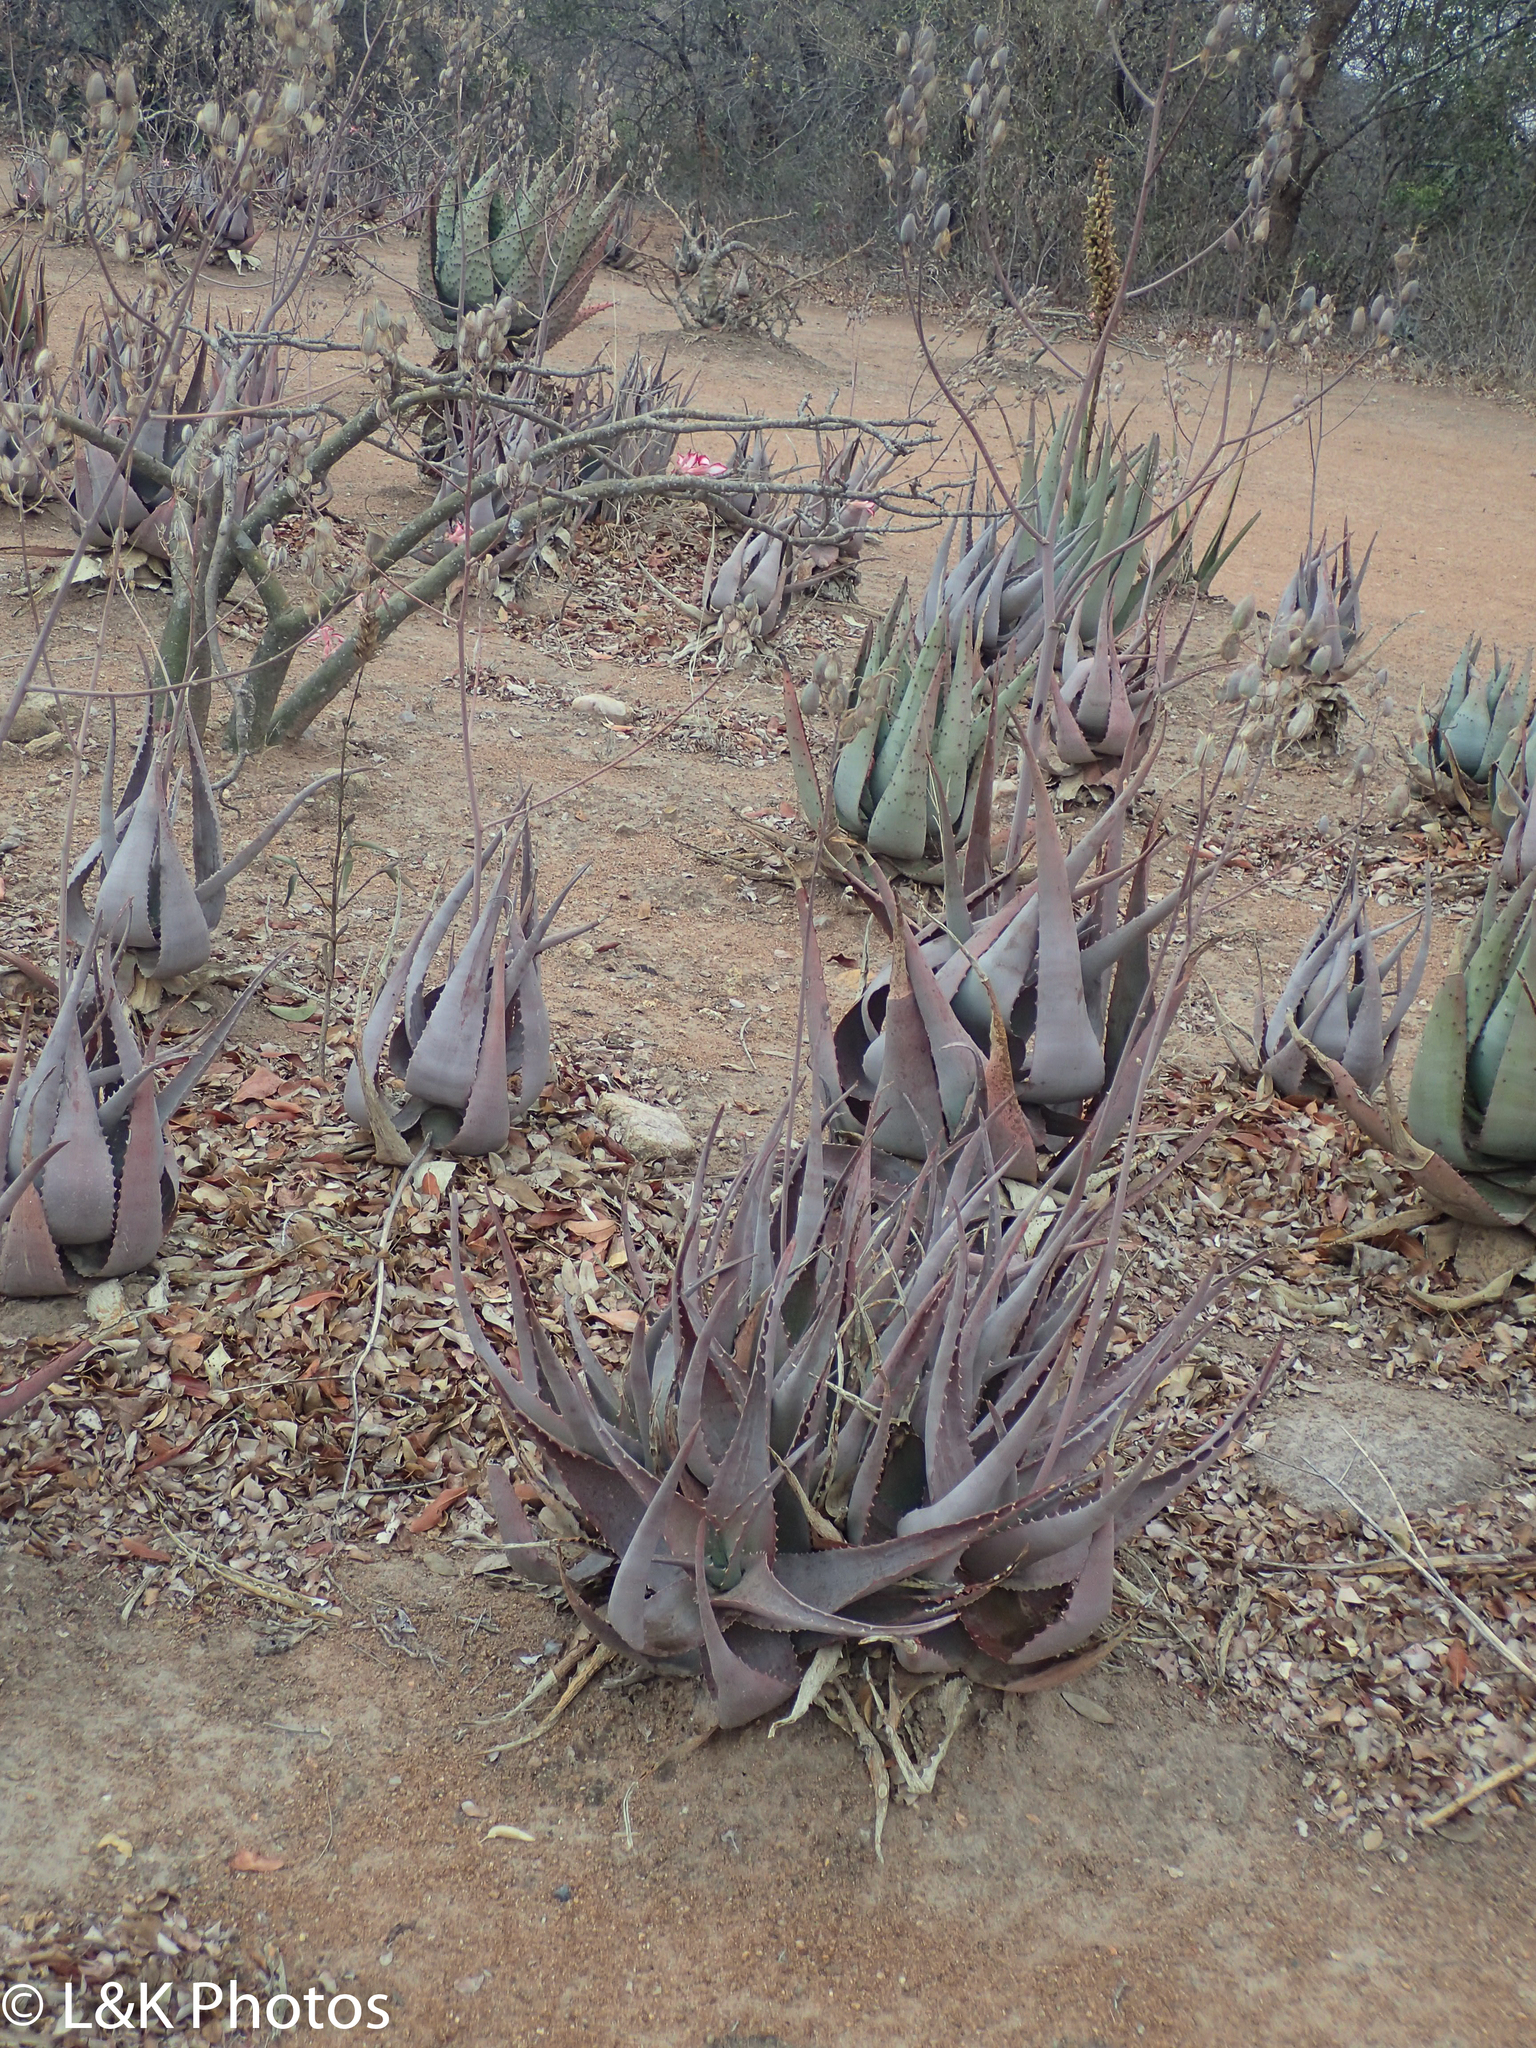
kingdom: Plantae
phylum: Tracheophyta
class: Liliopsida
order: Asparagales
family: Asphodelaceae
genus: Aloe
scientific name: Aloe chabaudii
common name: Chabaud's aloe
